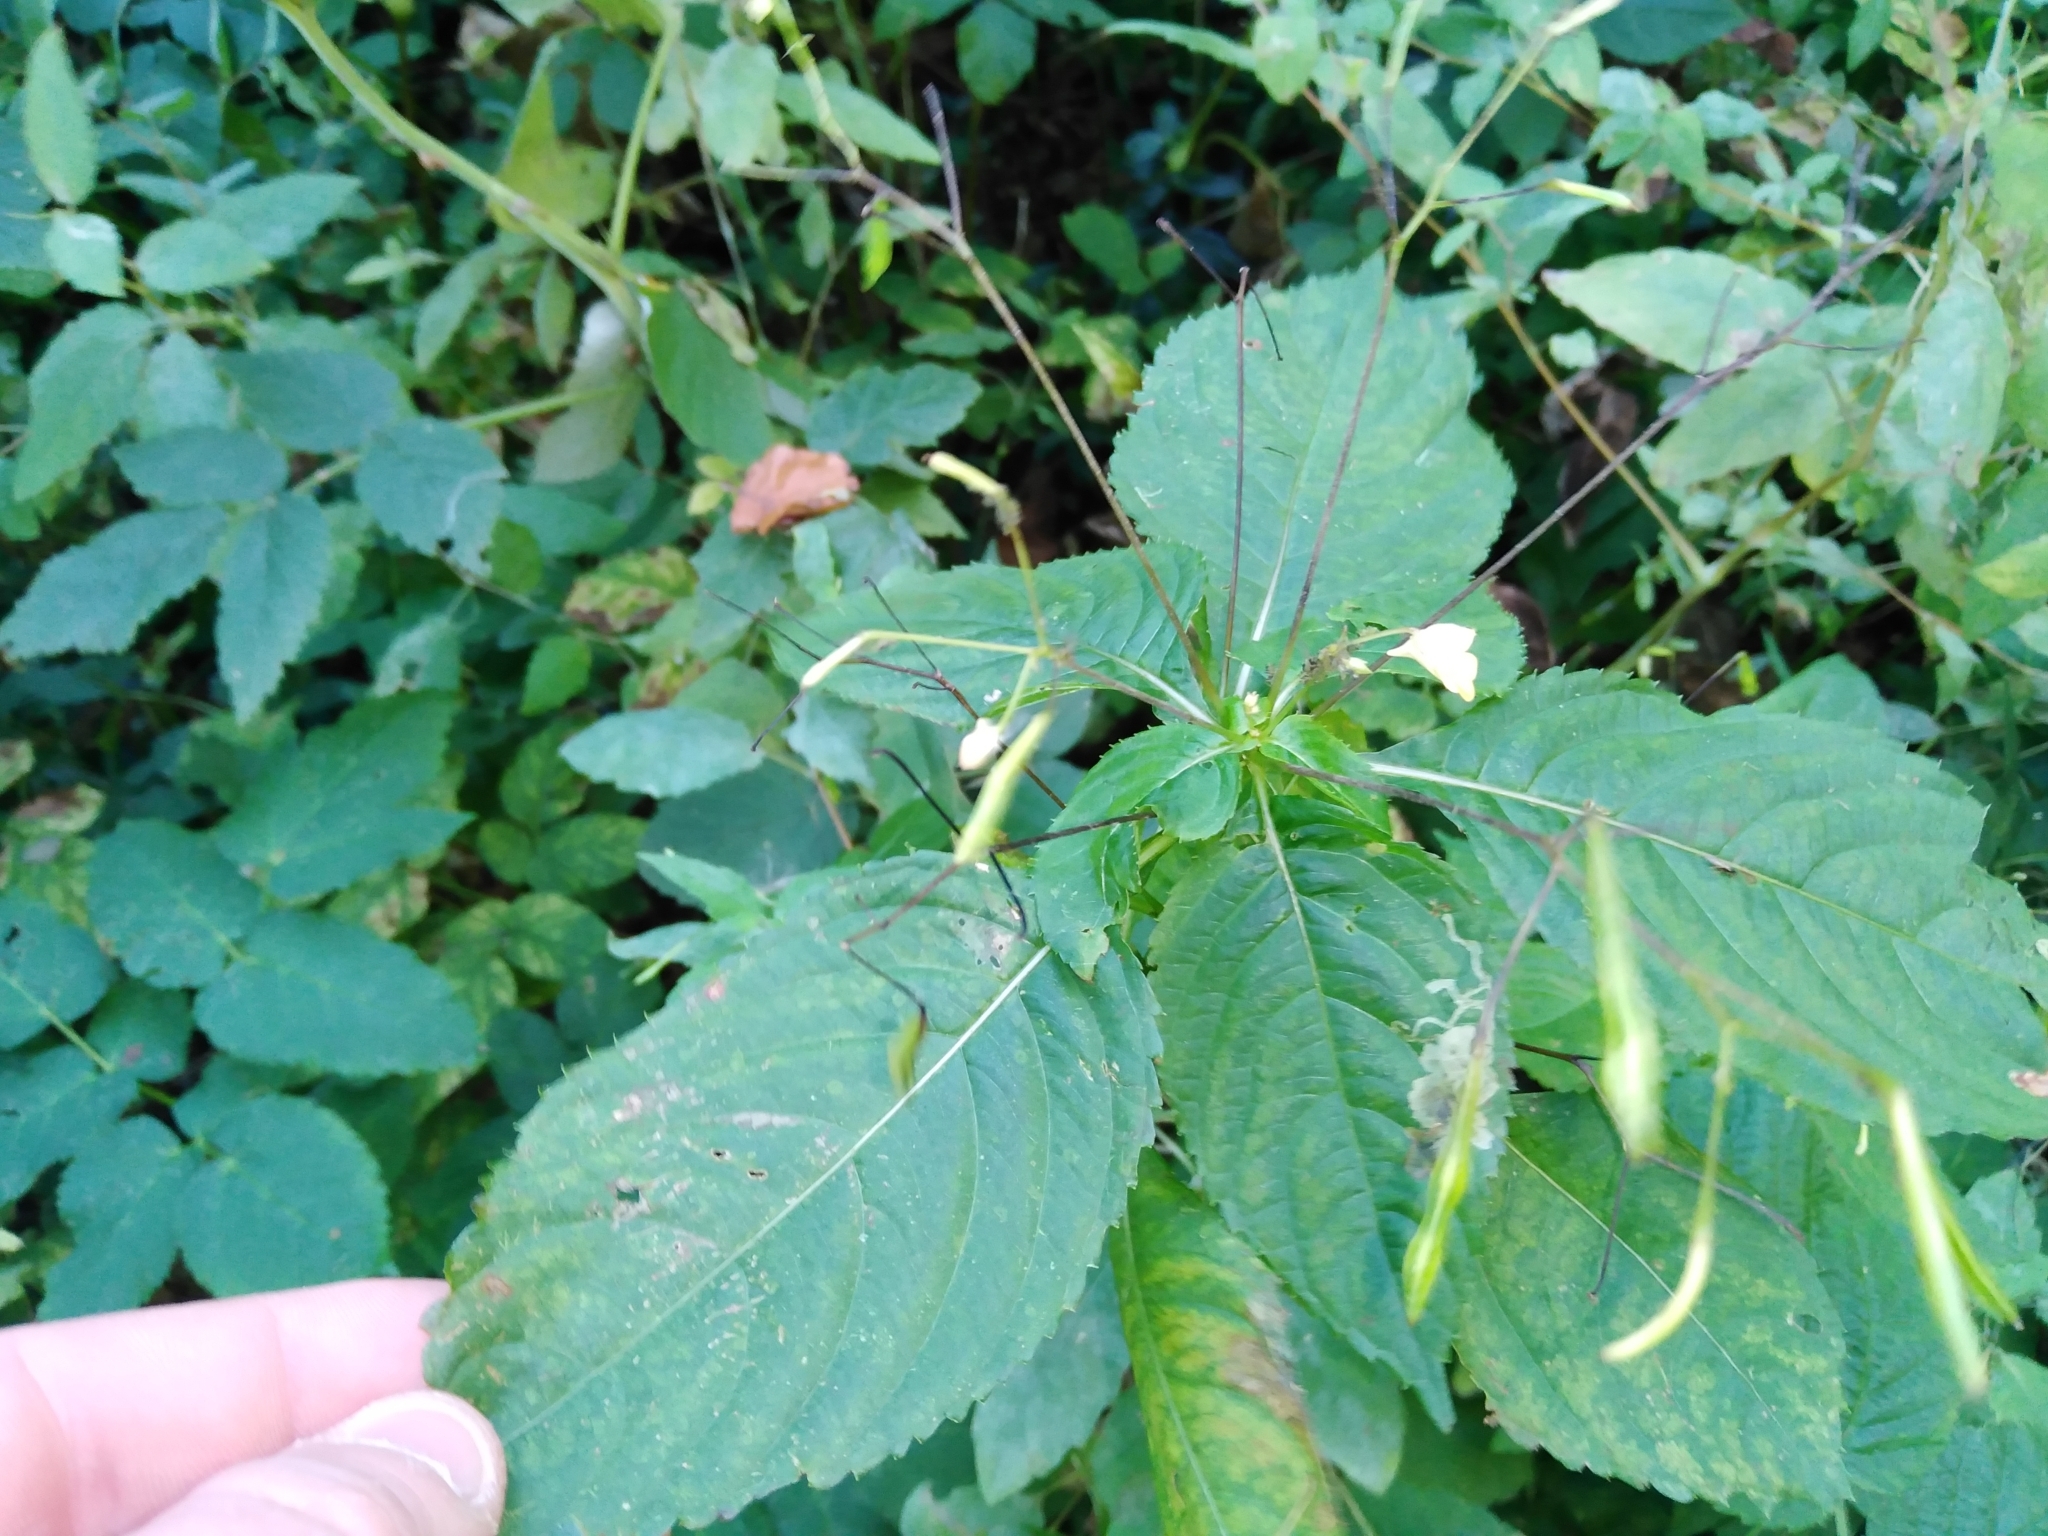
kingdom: Plantae
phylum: Tracheophyta
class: Magnoliopsida
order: Ericales
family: Balsaminaceae
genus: Impatiens
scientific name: Impatiens parviflora
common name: Small balsam
